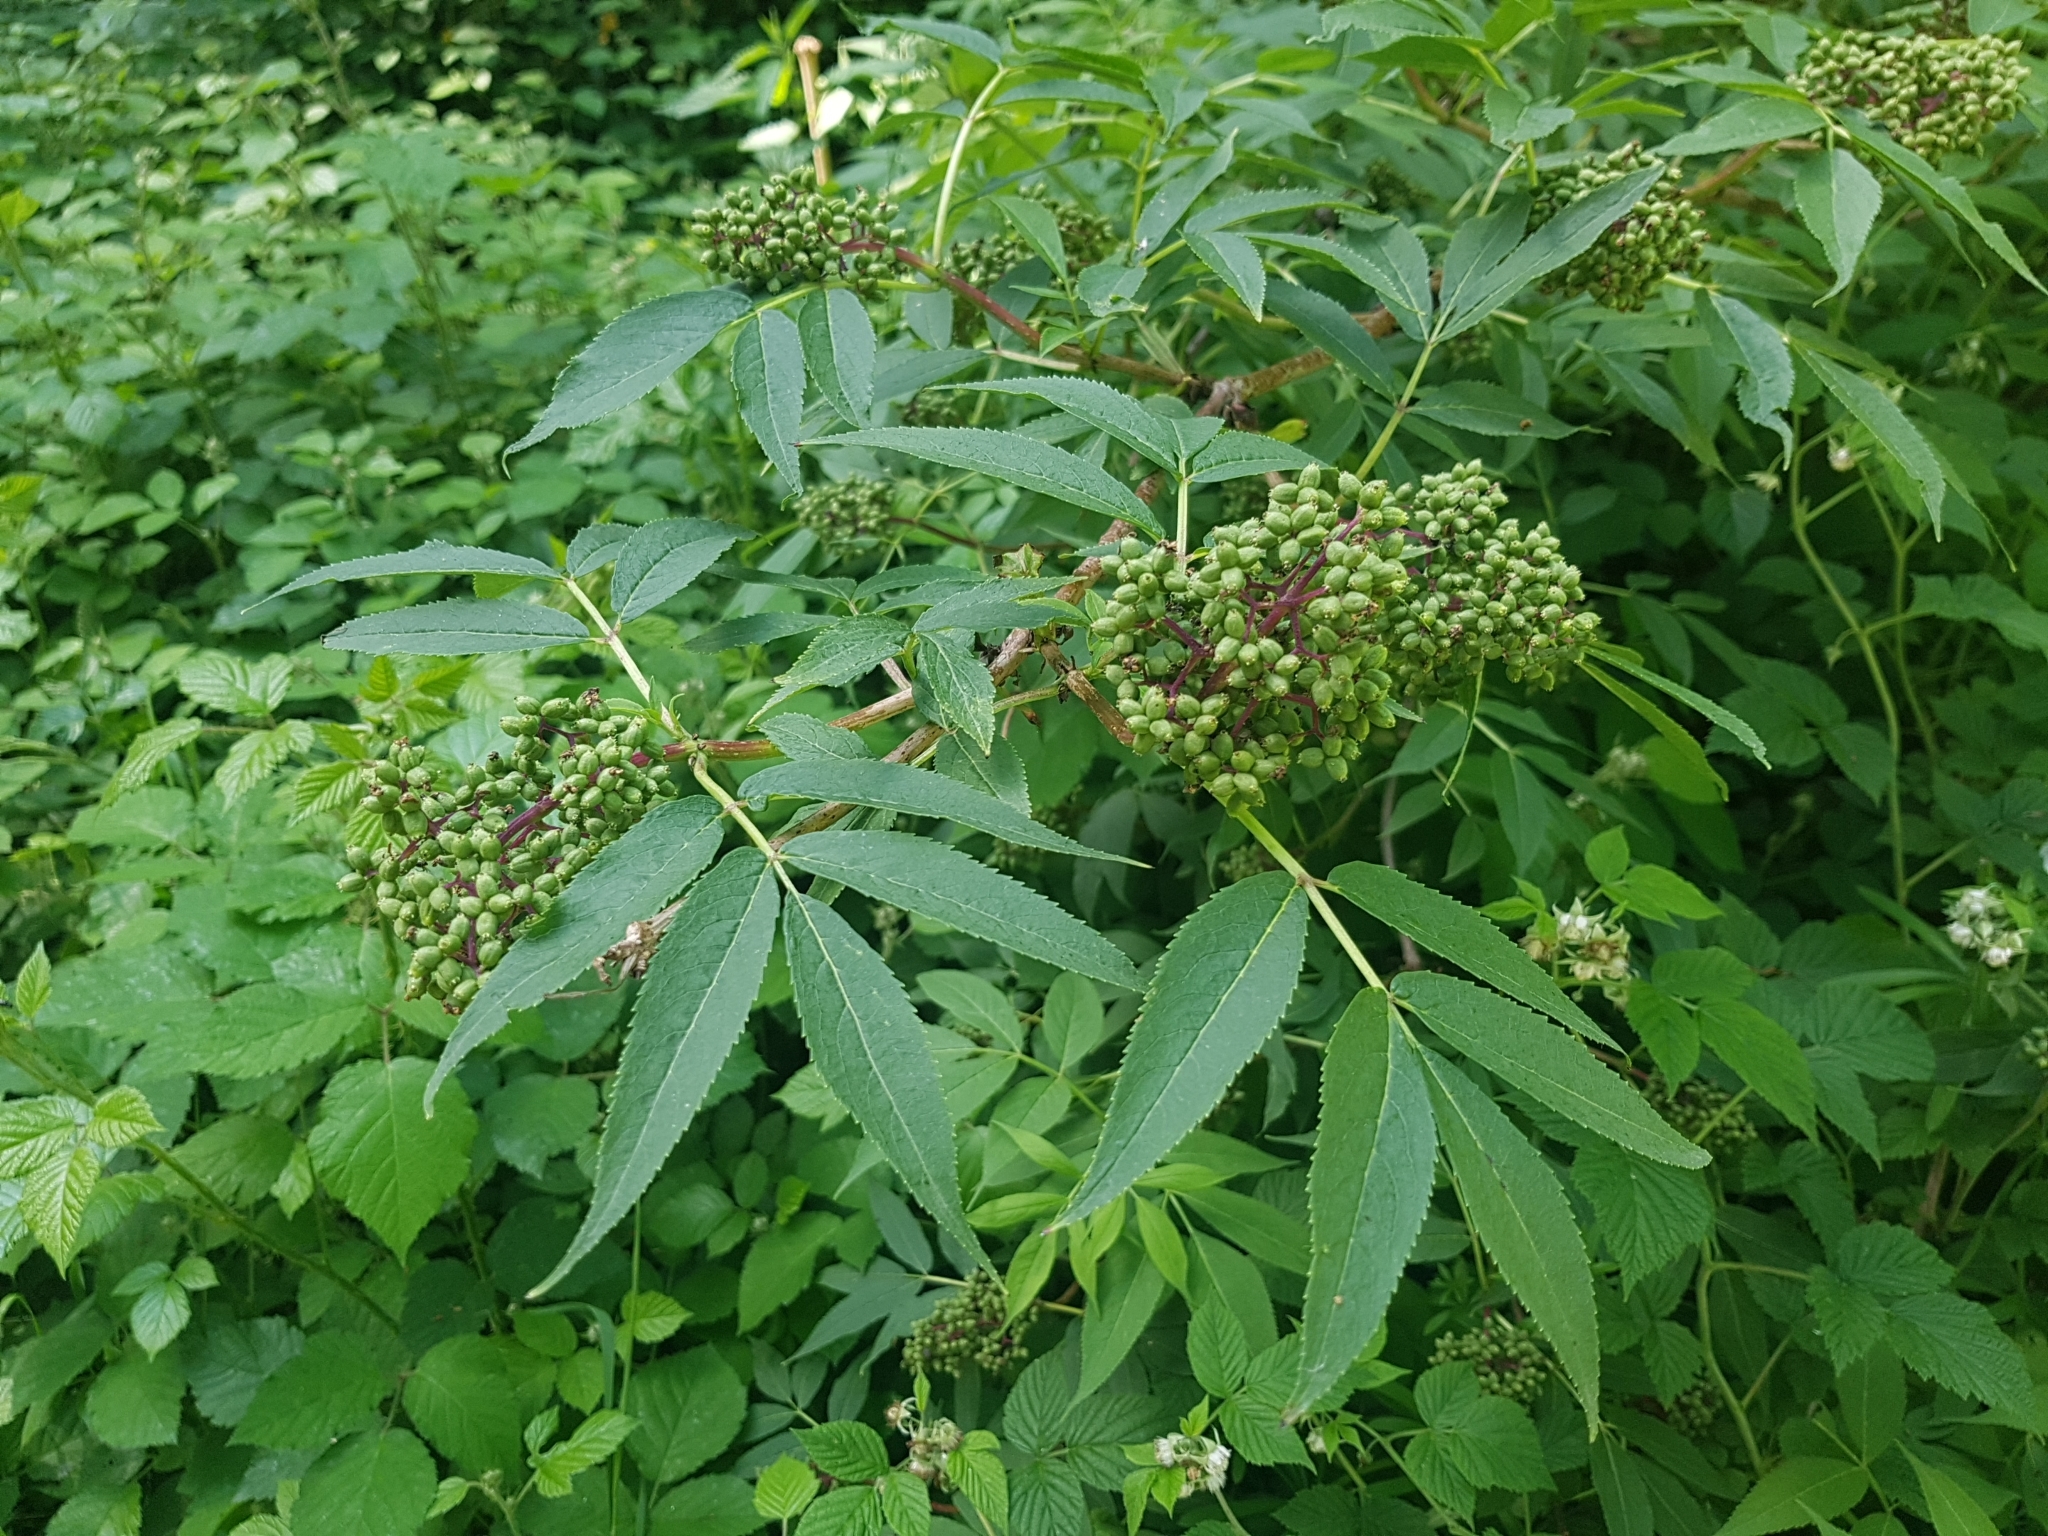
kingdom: Plantae
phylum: Tracheophyta
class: Magnoliopsida
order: Dipsacales
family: Viburnaceae
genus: Sambucus
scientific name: Sambucus racemosa
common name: Red-berried elder
